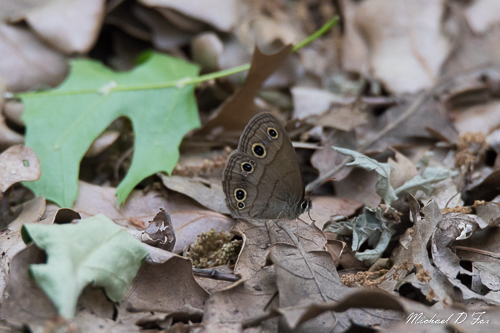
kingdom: Animalia
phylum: Arthropoda
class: Insecta
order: Lepidoptera
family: Nymphalidae
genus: Euptychia
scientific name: Euptychia cymela
